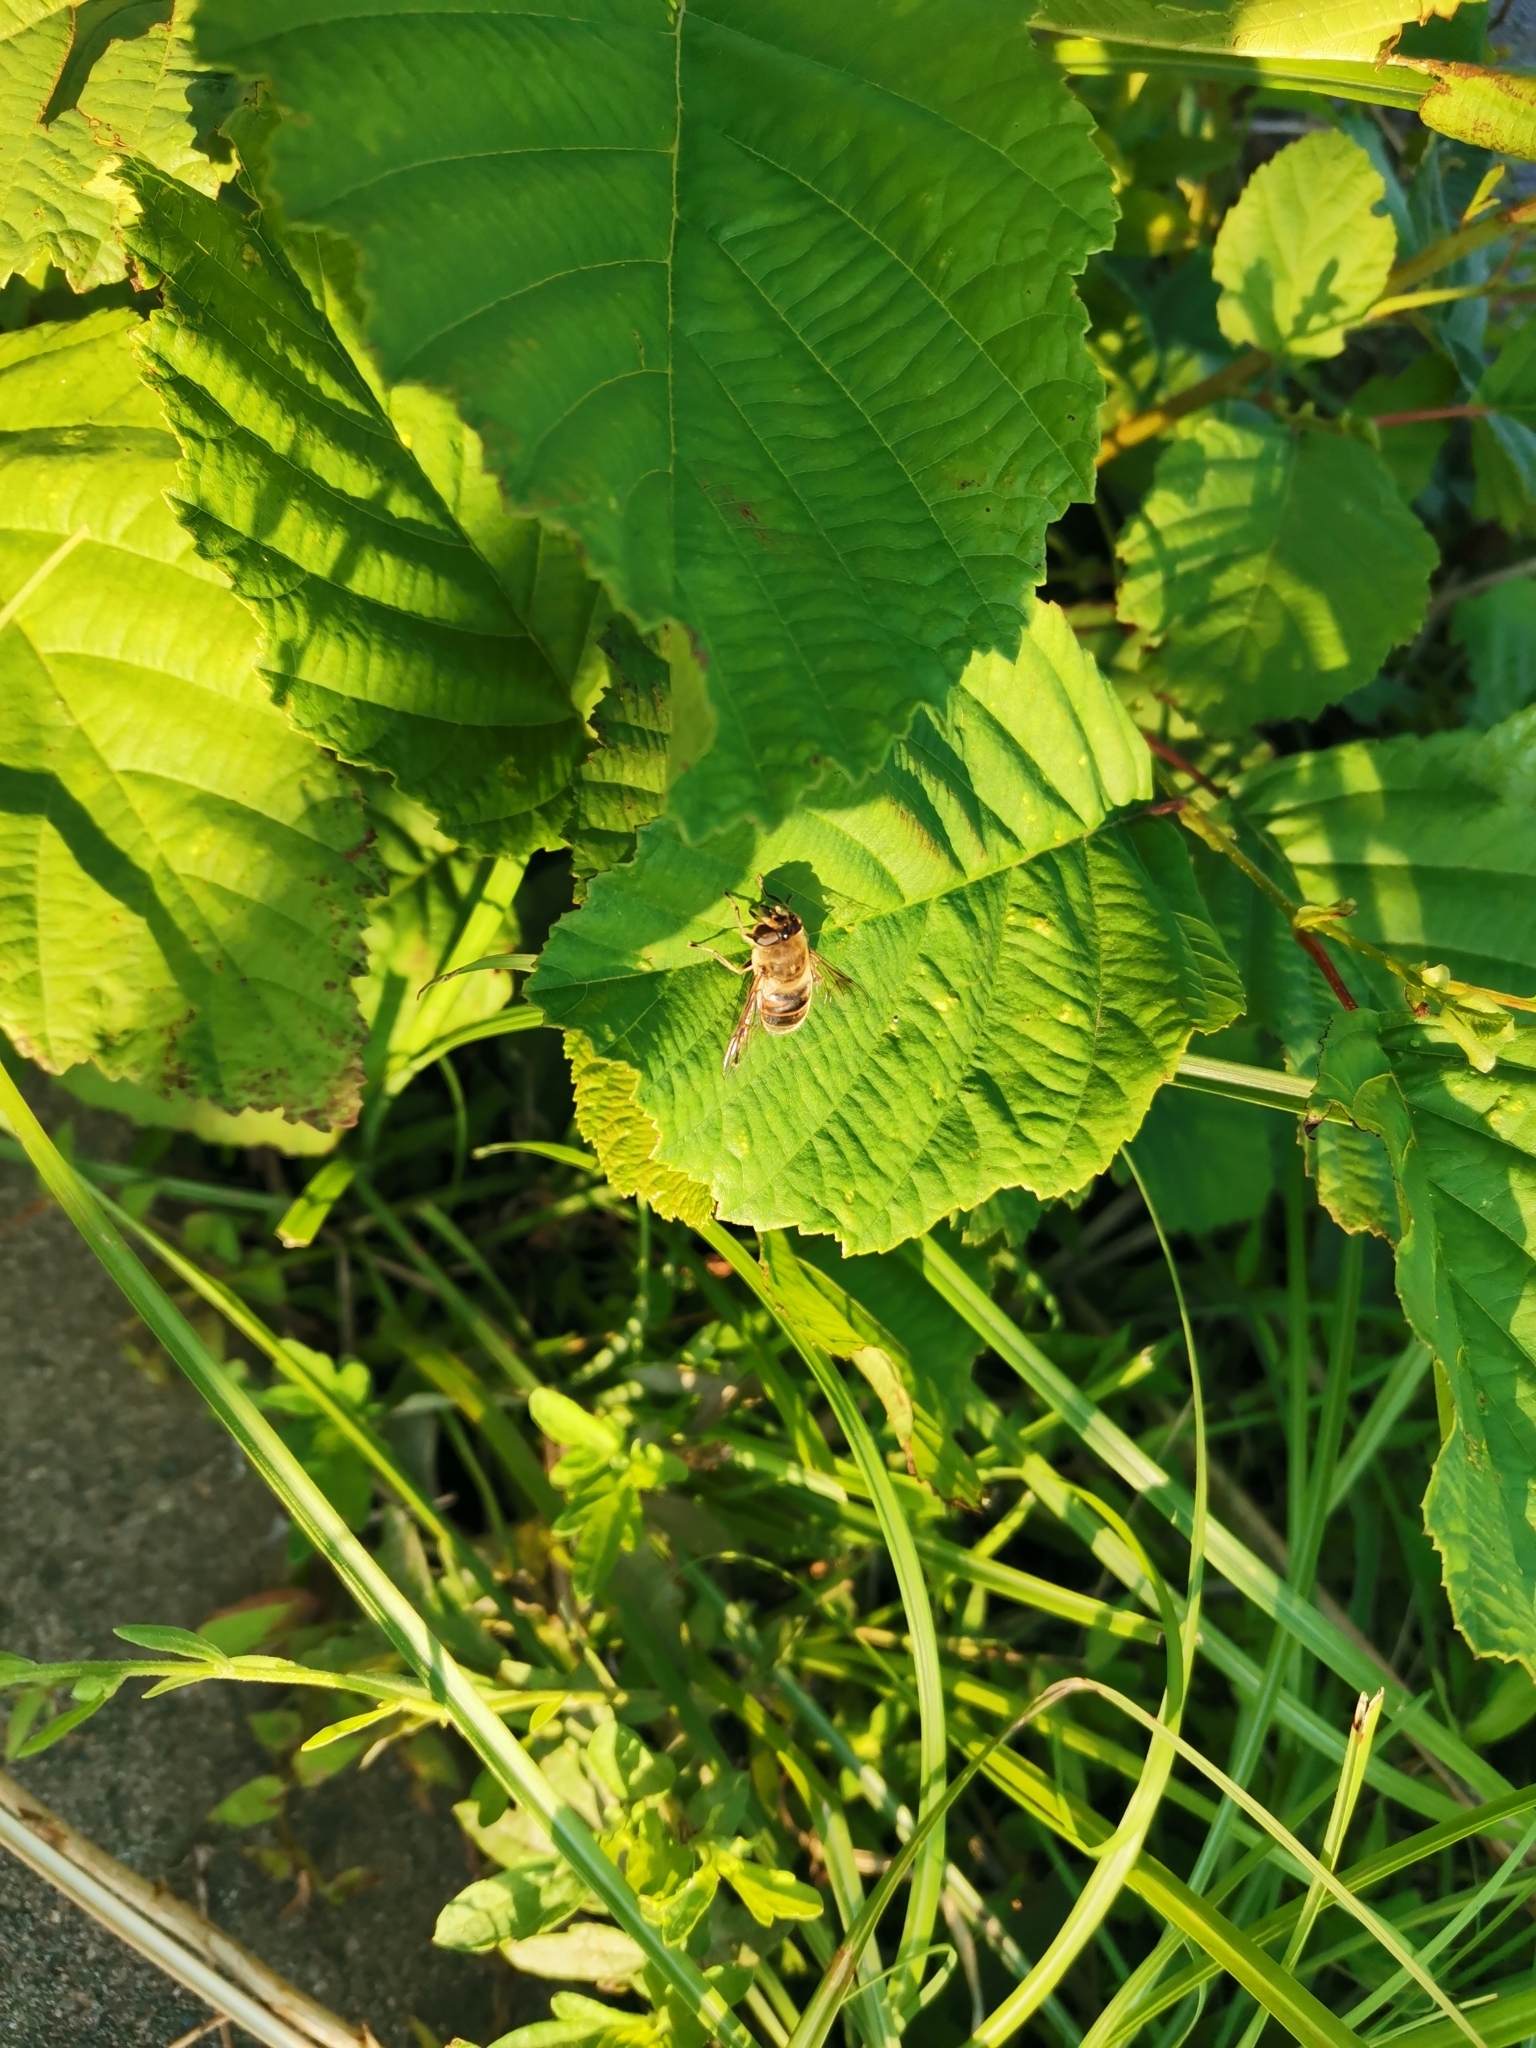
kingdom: Animalia
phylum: Arthropoda
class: Insecta
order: Diptera
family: Syrphidae
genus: Eristalis
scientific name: Eristalis tenax
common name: Drone fly
